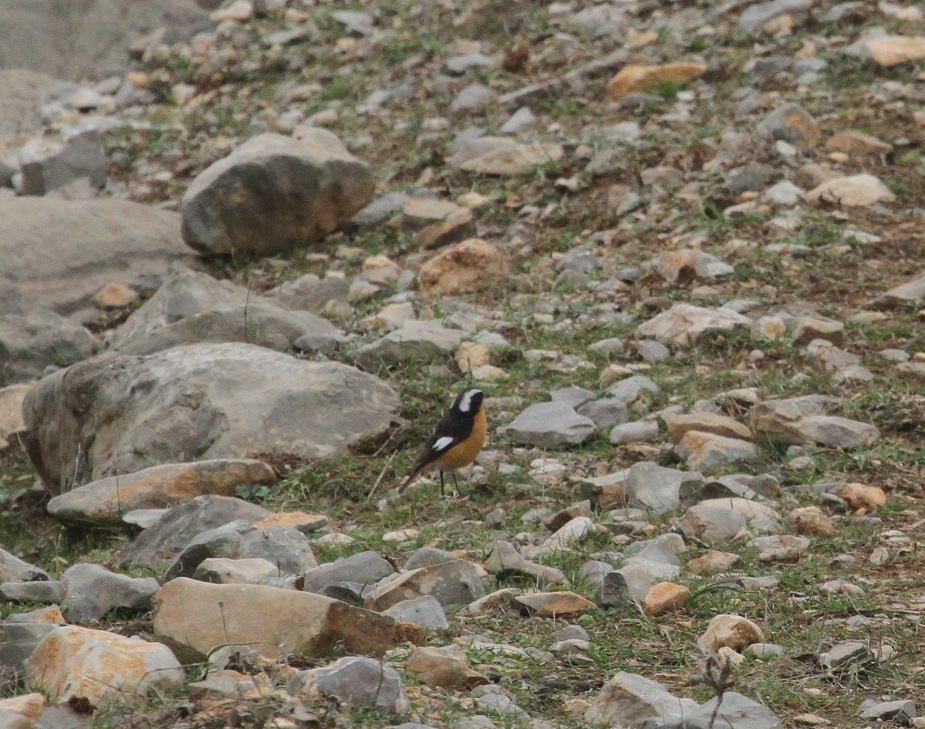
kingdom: Animalia
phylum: Chordata
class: Aves
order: Passeriformes
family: Muscicapidae
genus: Phoenicurus
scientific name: Phoenicurus moussieri
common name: Moussier's redstart
